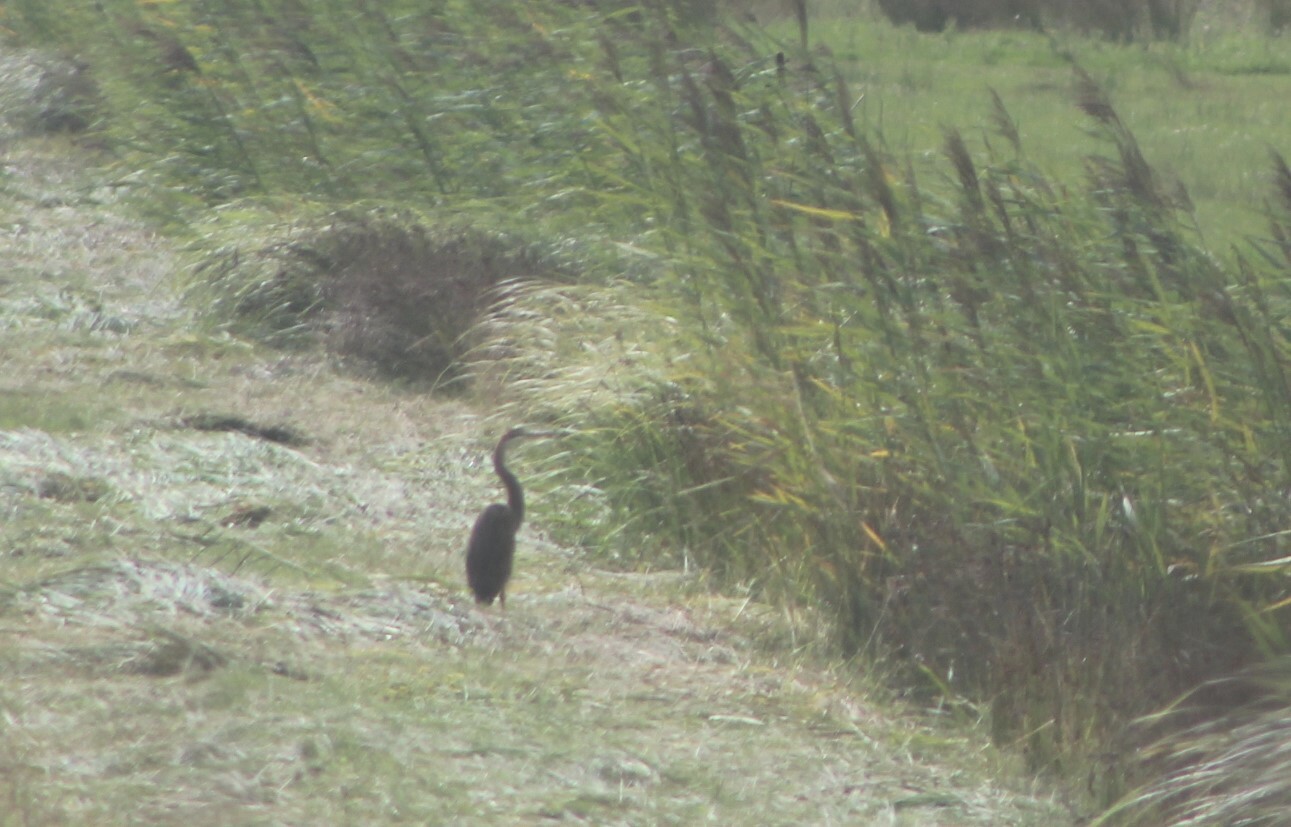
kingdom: Animalia
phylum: Chordata
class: Aves
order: Pelecaniformes
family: Ardeidae
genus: Ardea
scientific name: Ardea purpurea
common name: Purple heron
